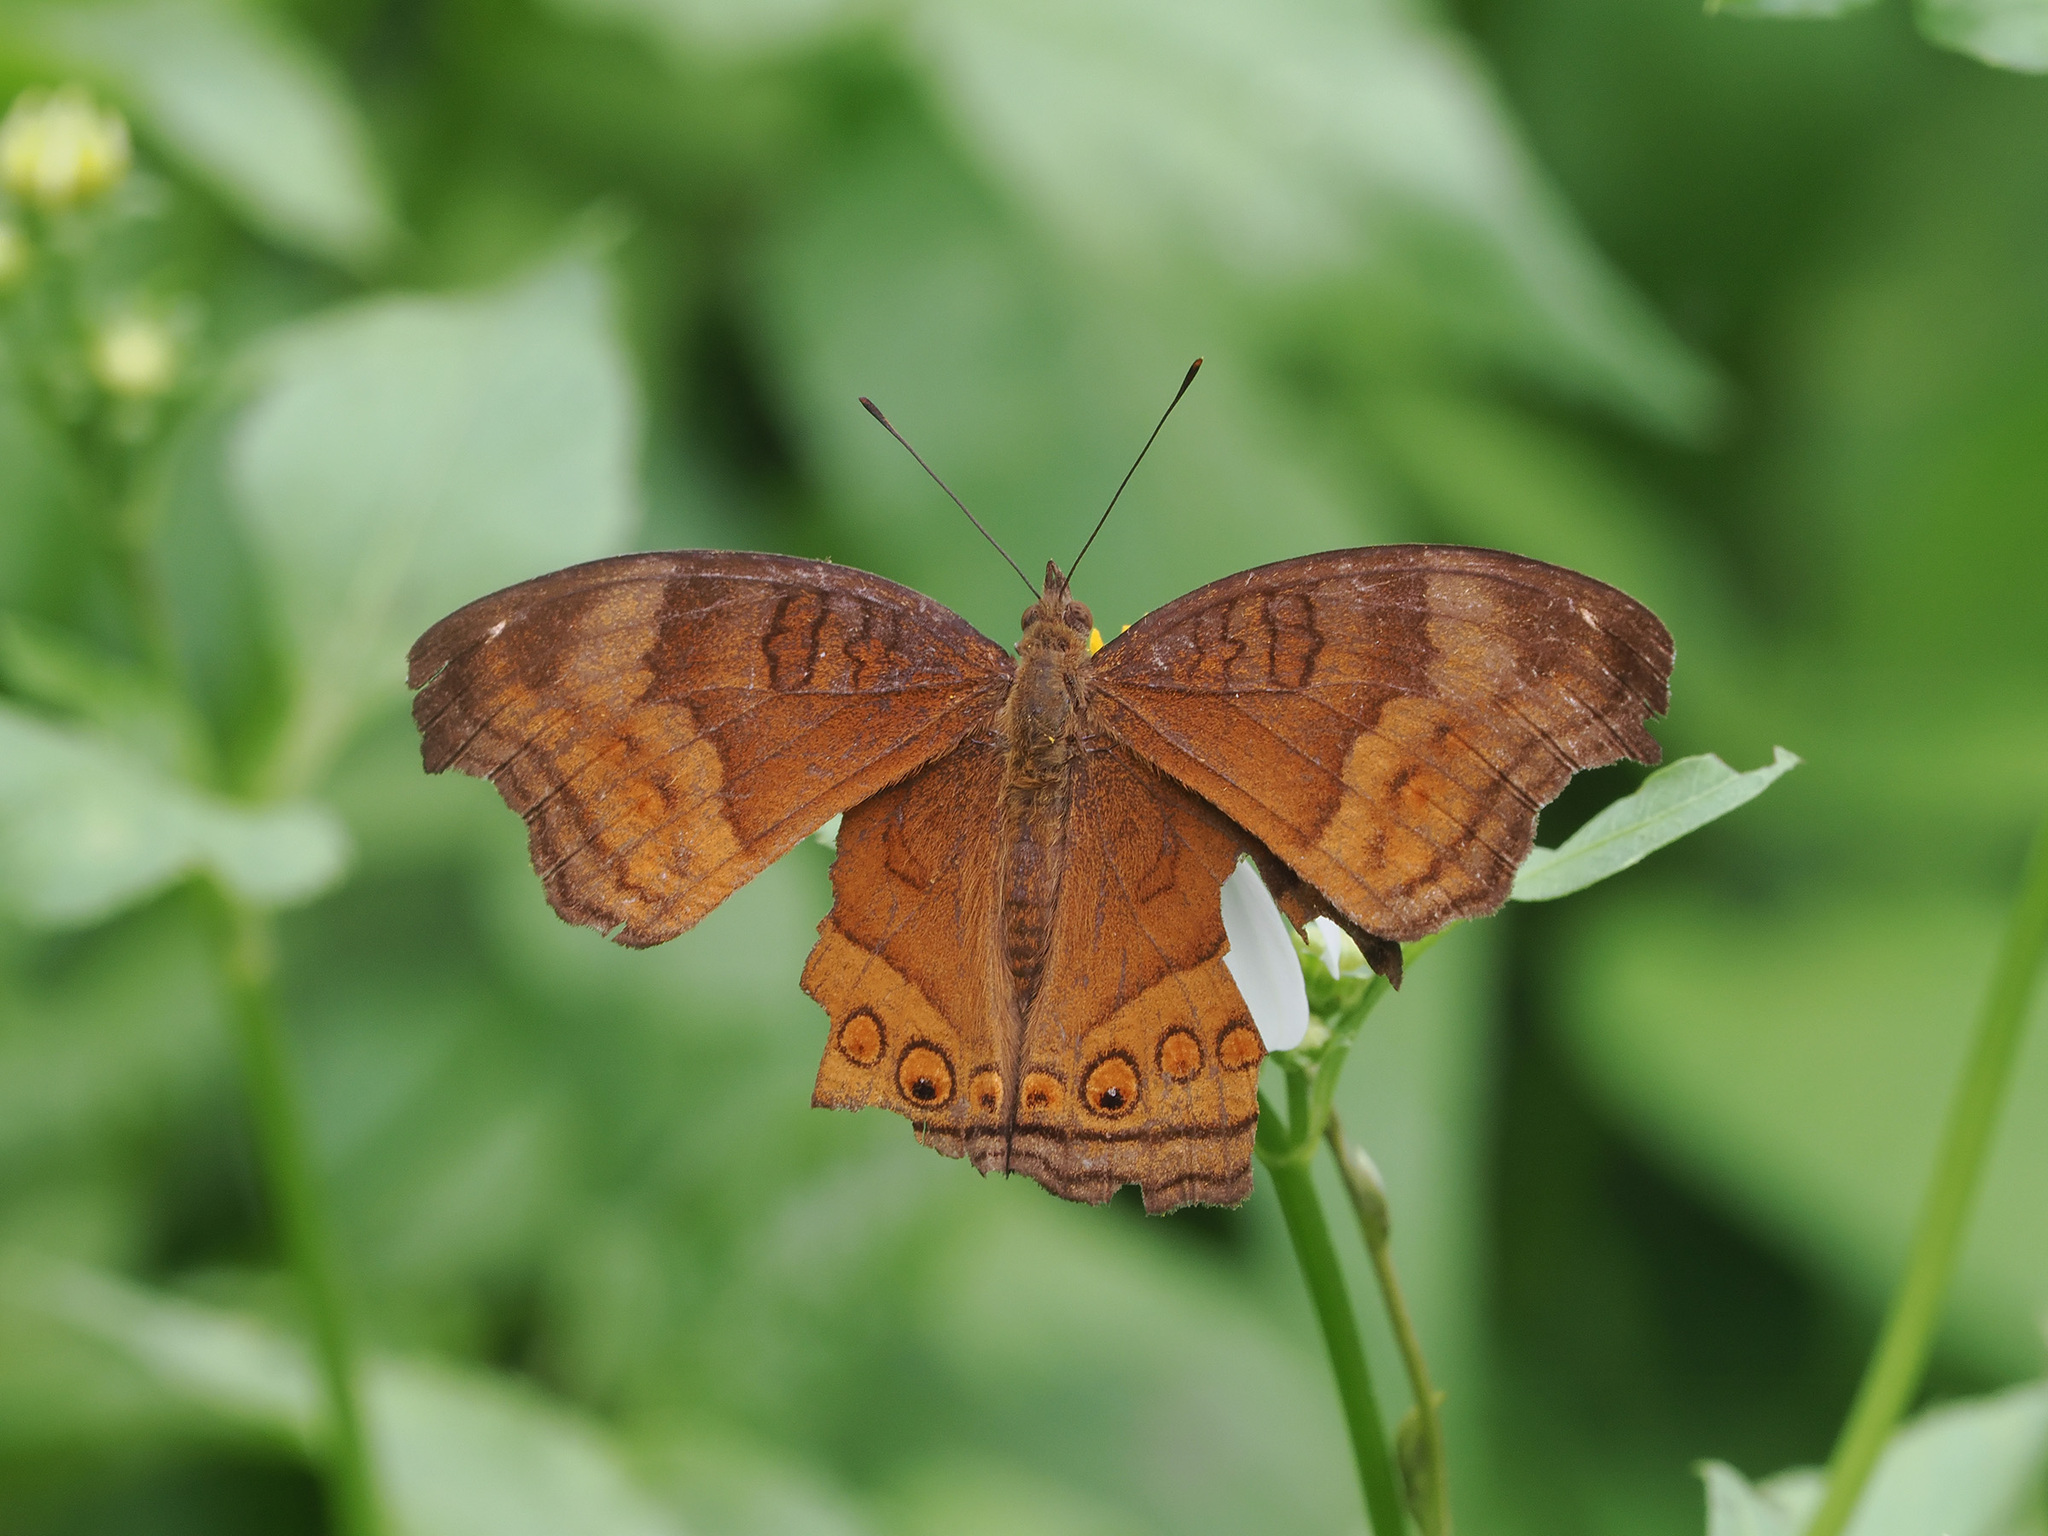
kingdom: Animalia
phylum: Arthropoda
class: Insecta
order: Lepidoptera
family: Nymphalidae
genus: Junonia
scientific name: Junonia hedonia
